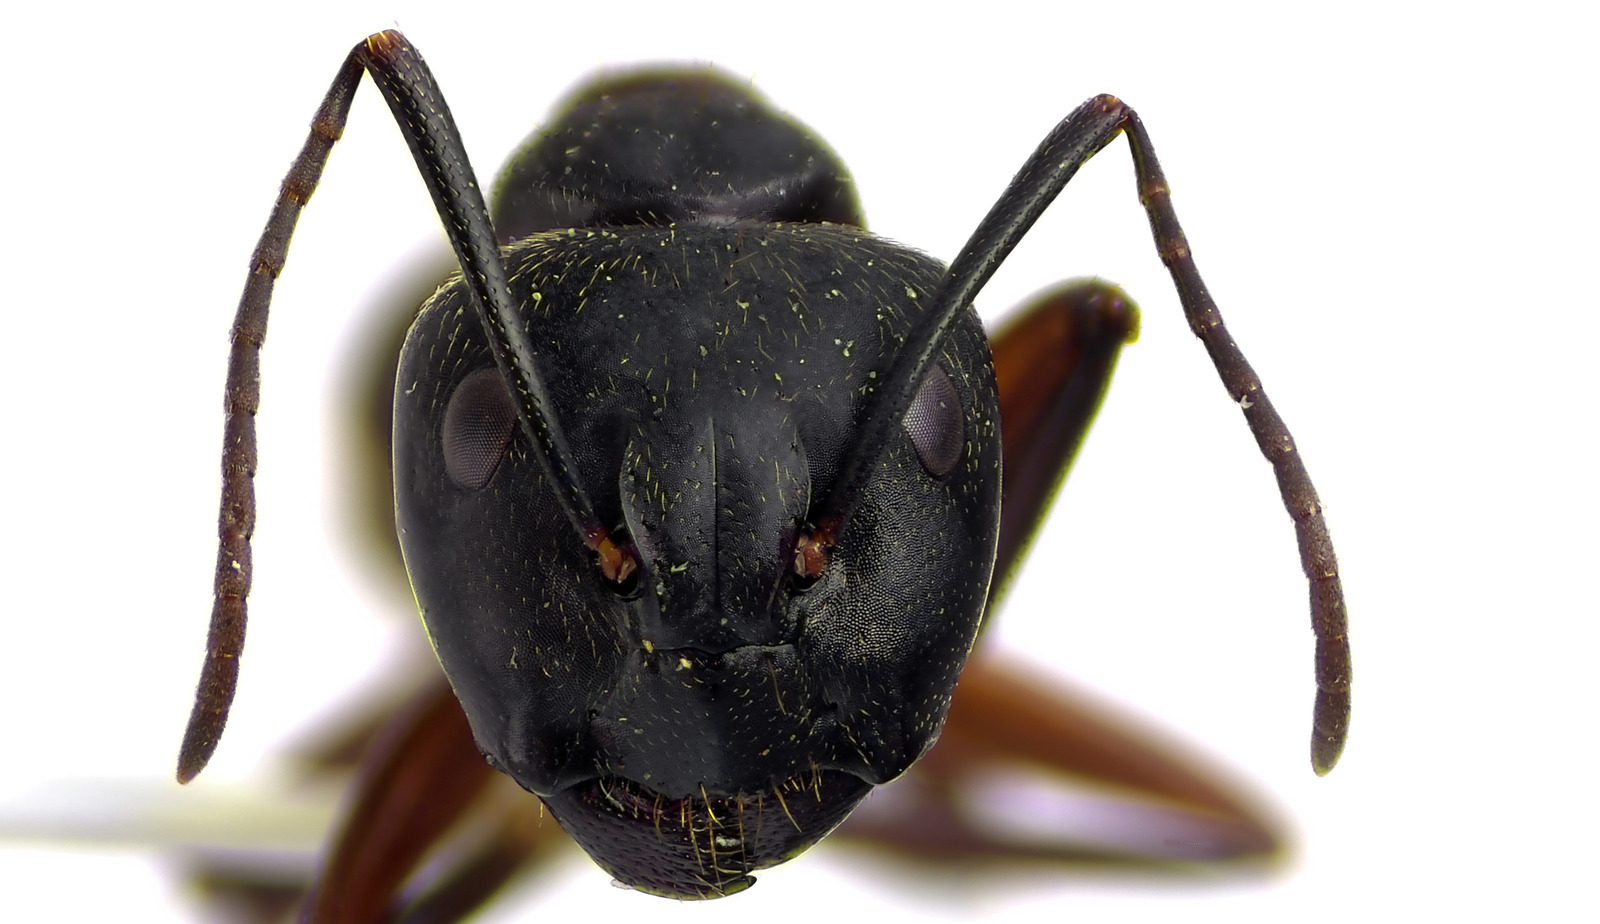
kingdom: Animalia
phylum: Arthropoda
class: Insecta
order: Hymenoptera
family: Formicidae
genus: Camponotus
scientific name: Camponotus chromaiodes
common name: Red carpenter ant
